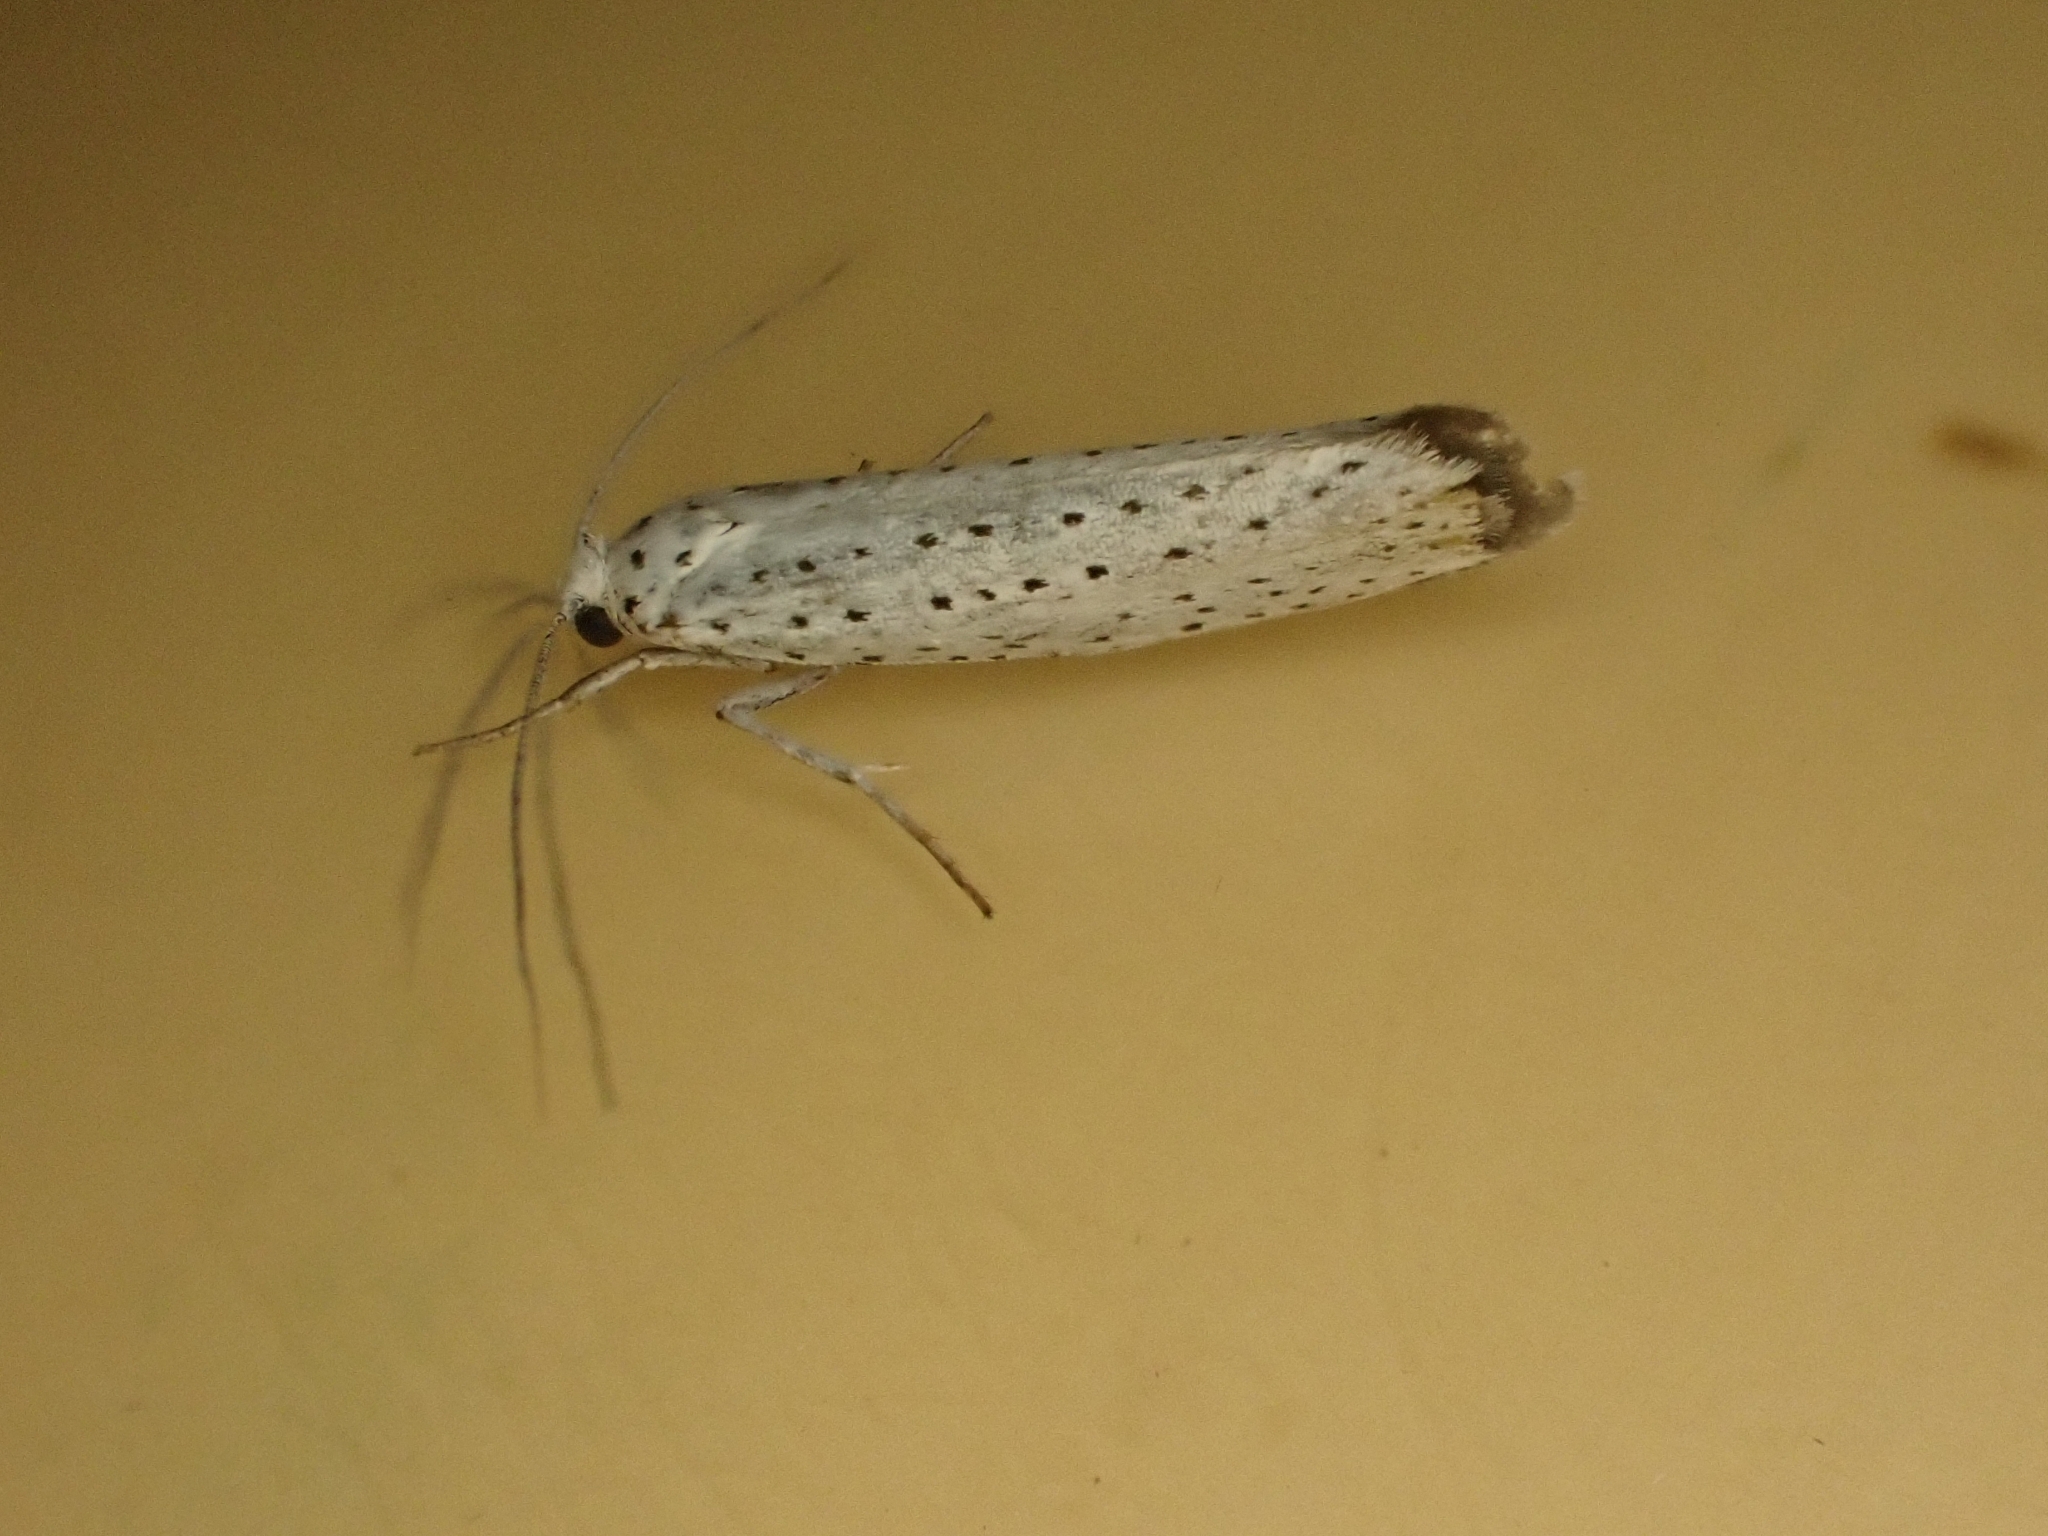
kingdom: Animalia
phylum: Arthropoda
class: Insecta
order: Lepidoptera
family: Yponomeutidae
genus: Yponomeuta
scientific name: Yponomeuta evonymella
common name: Bird-cherry ermine
